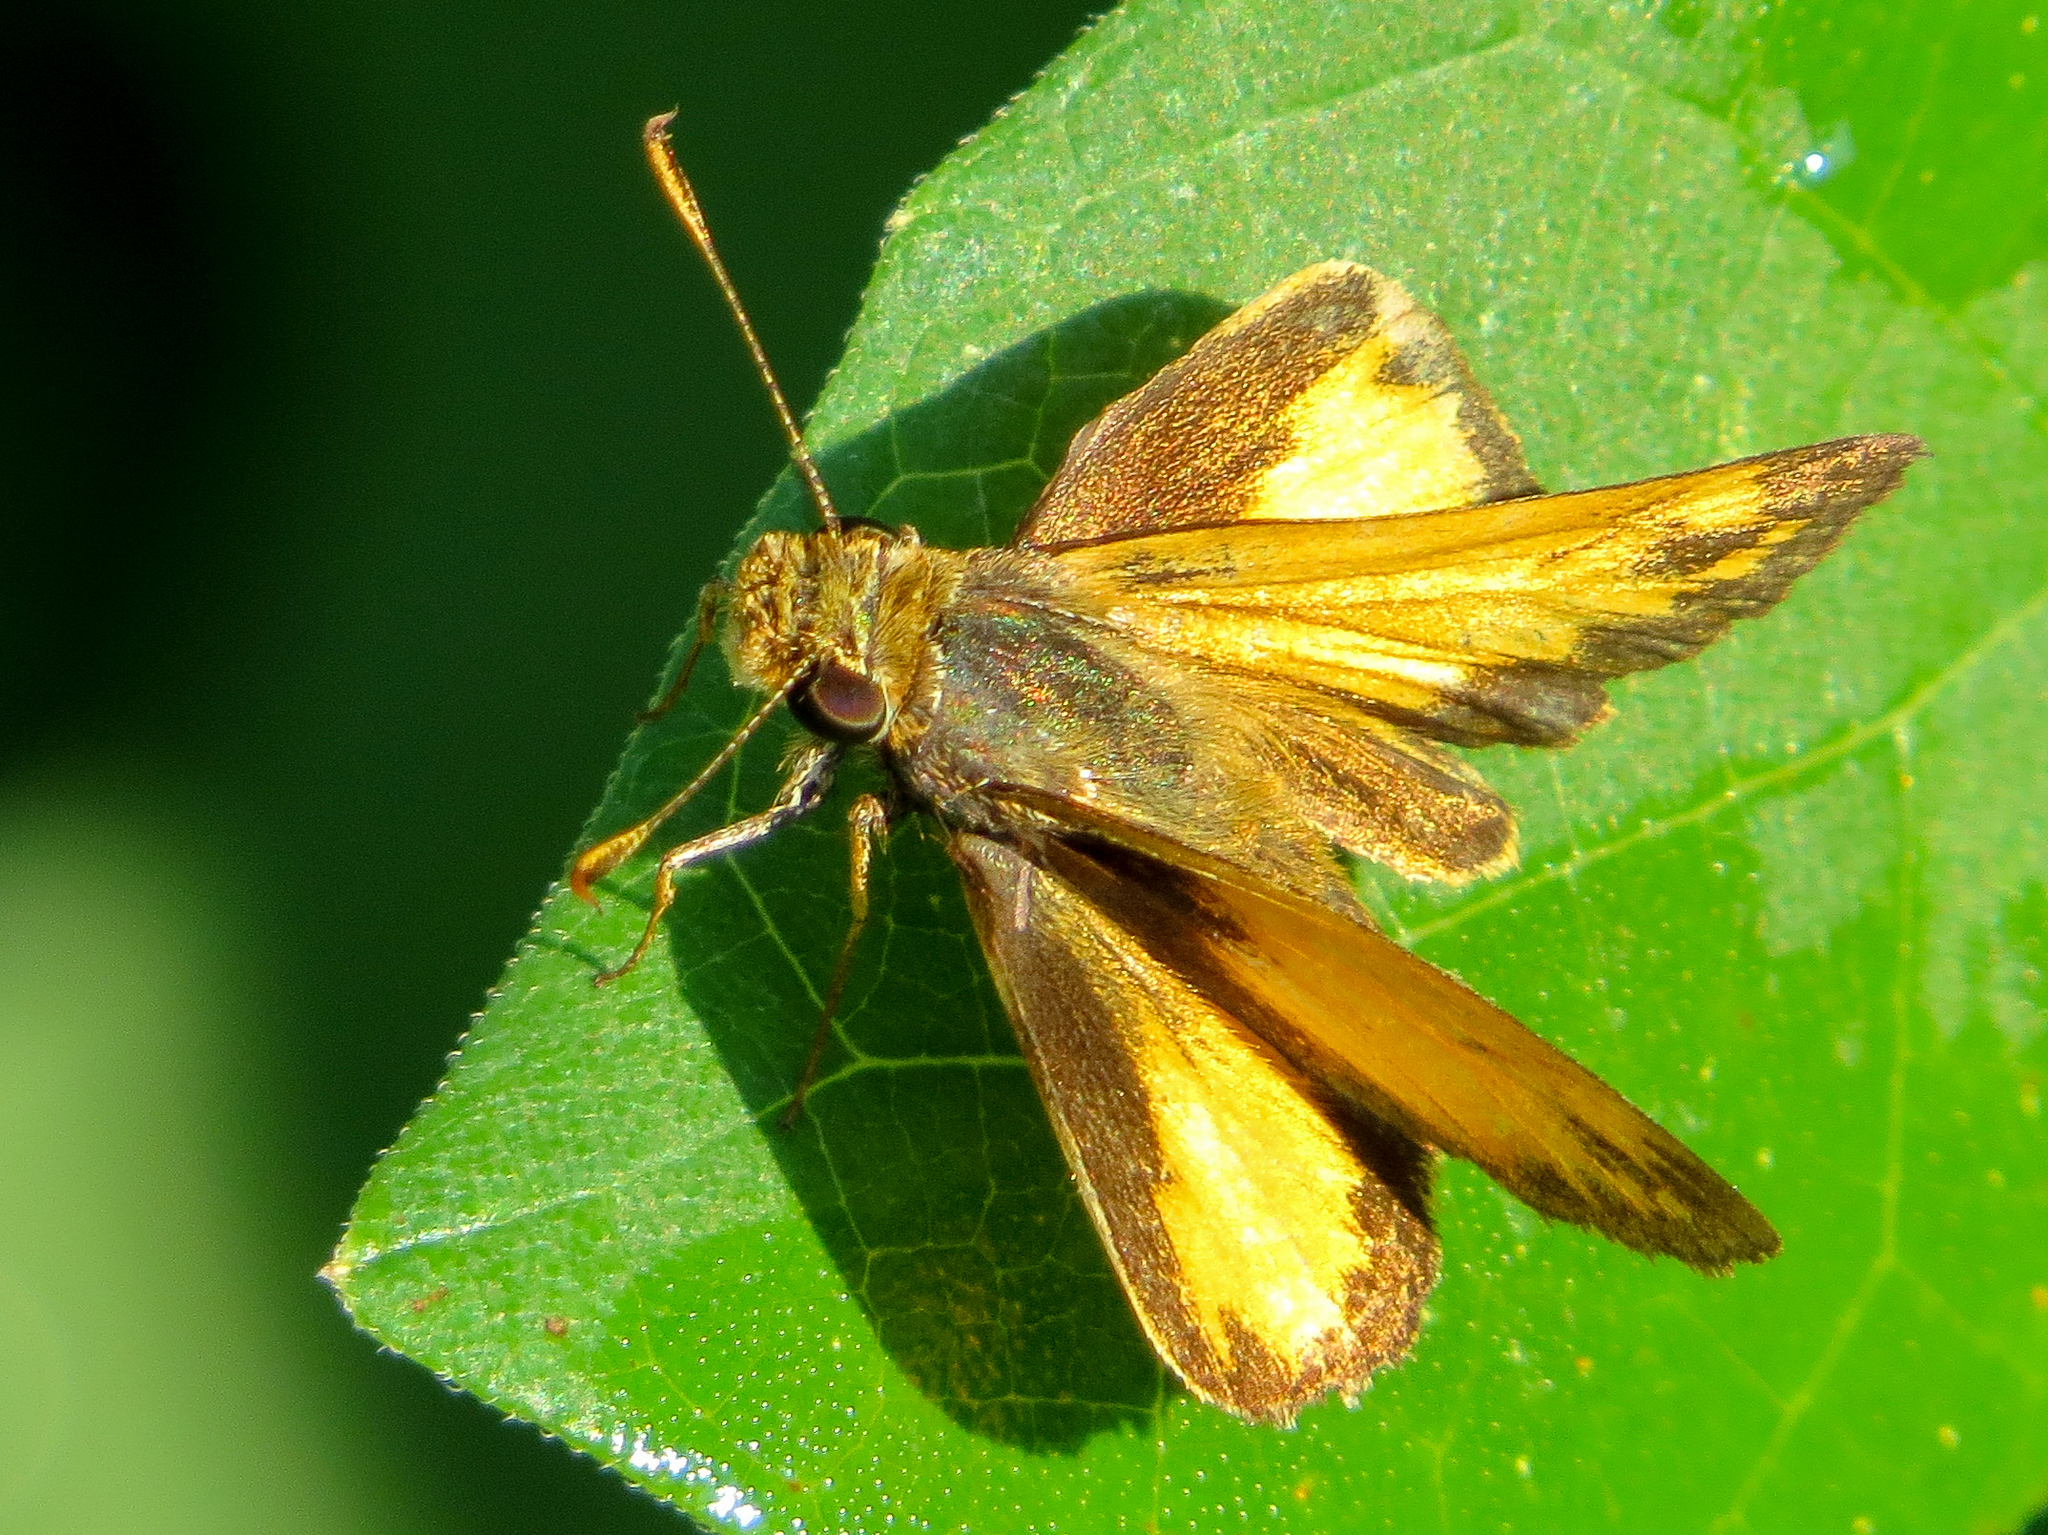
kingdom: Animalia
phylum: Arthropoda
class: Insecta
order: Lepidoptera
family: Hesperiidae
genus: Lon
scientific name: Lon zabulon
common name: Zabulon skipper
